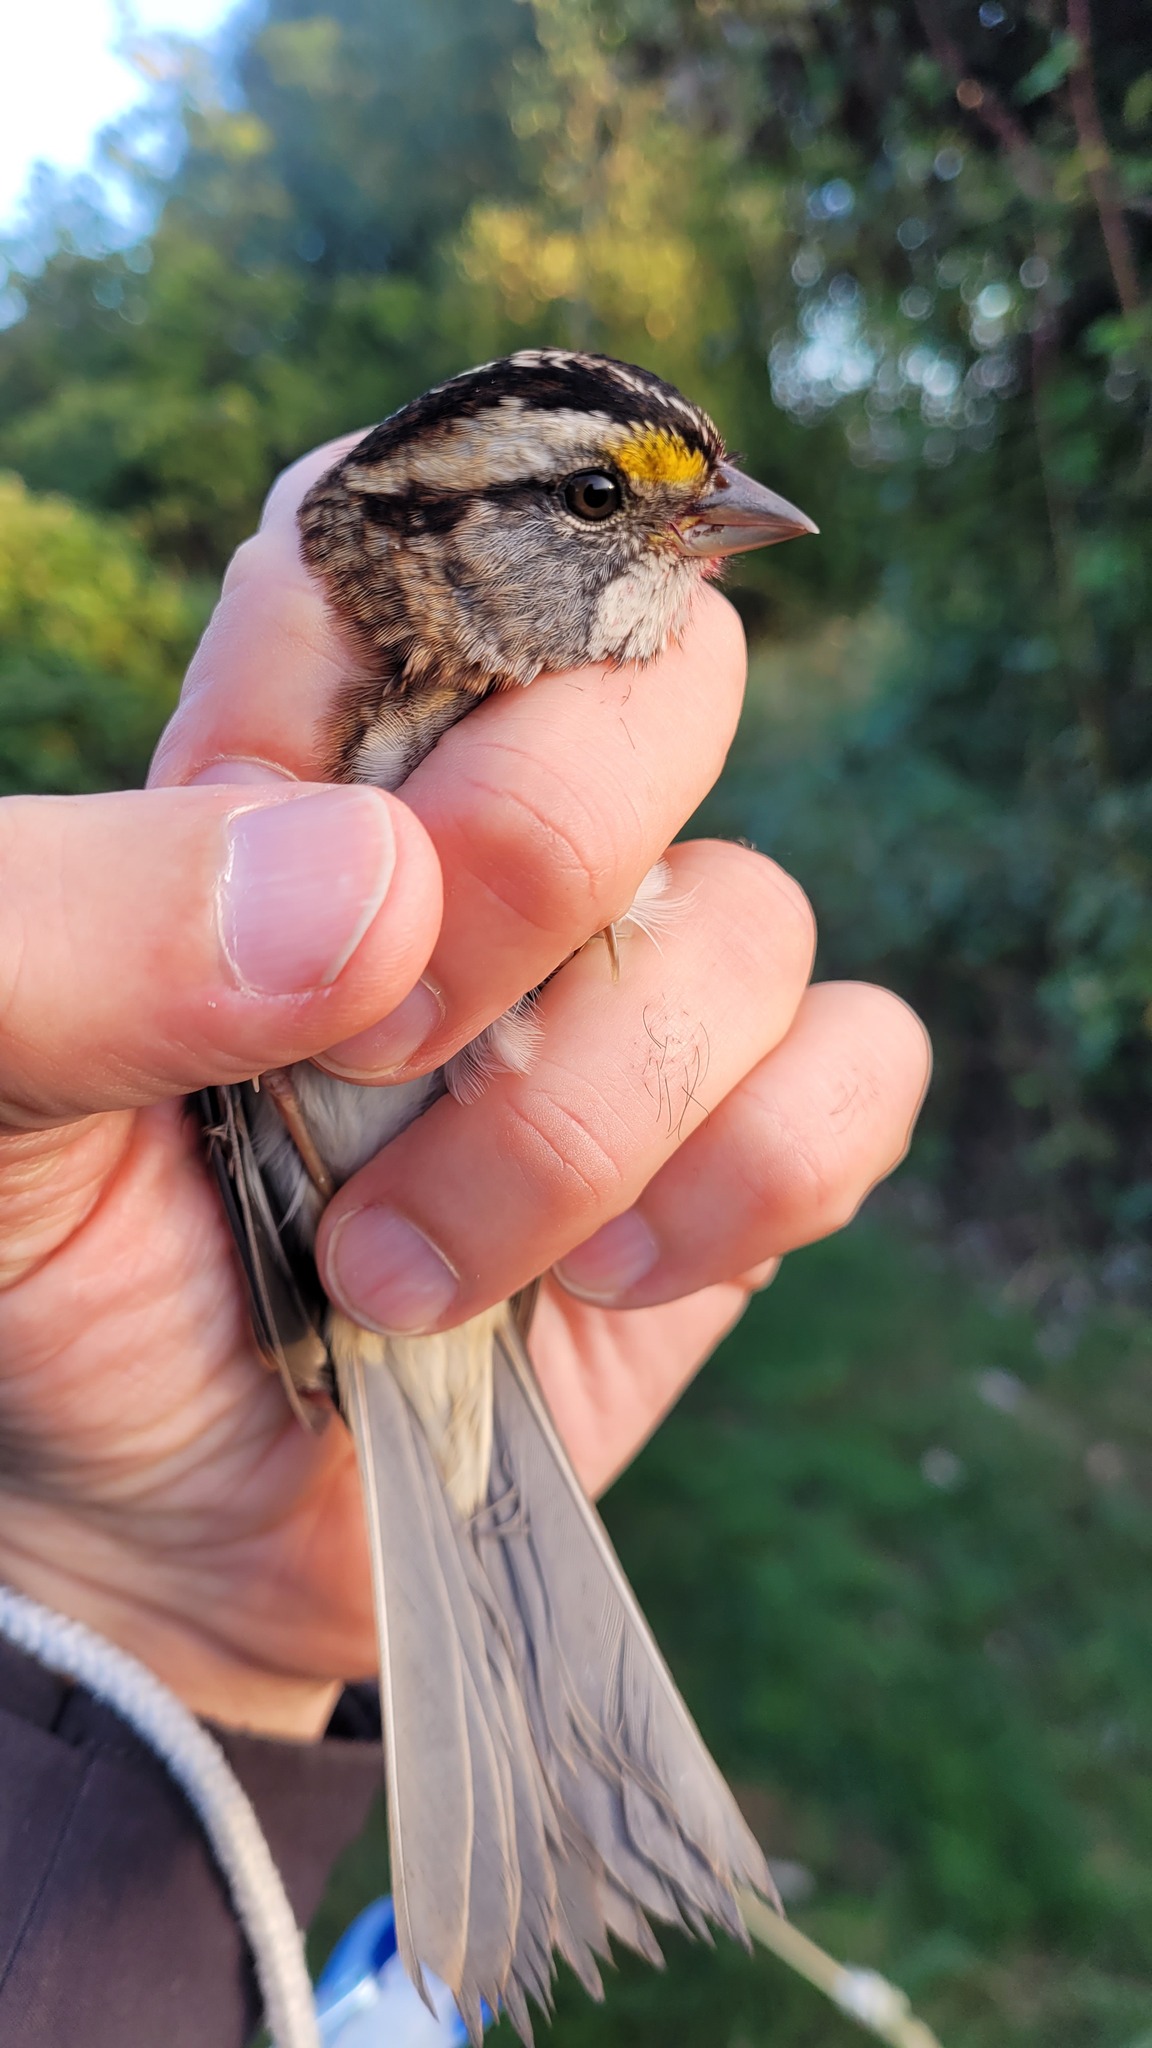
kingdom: Animalia
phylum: Chordata
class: Aves
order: Passeriformes
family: Passerellidae
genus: Zonotrichia
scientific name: Zonotrichia albicollis
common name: White-throated sparrow
